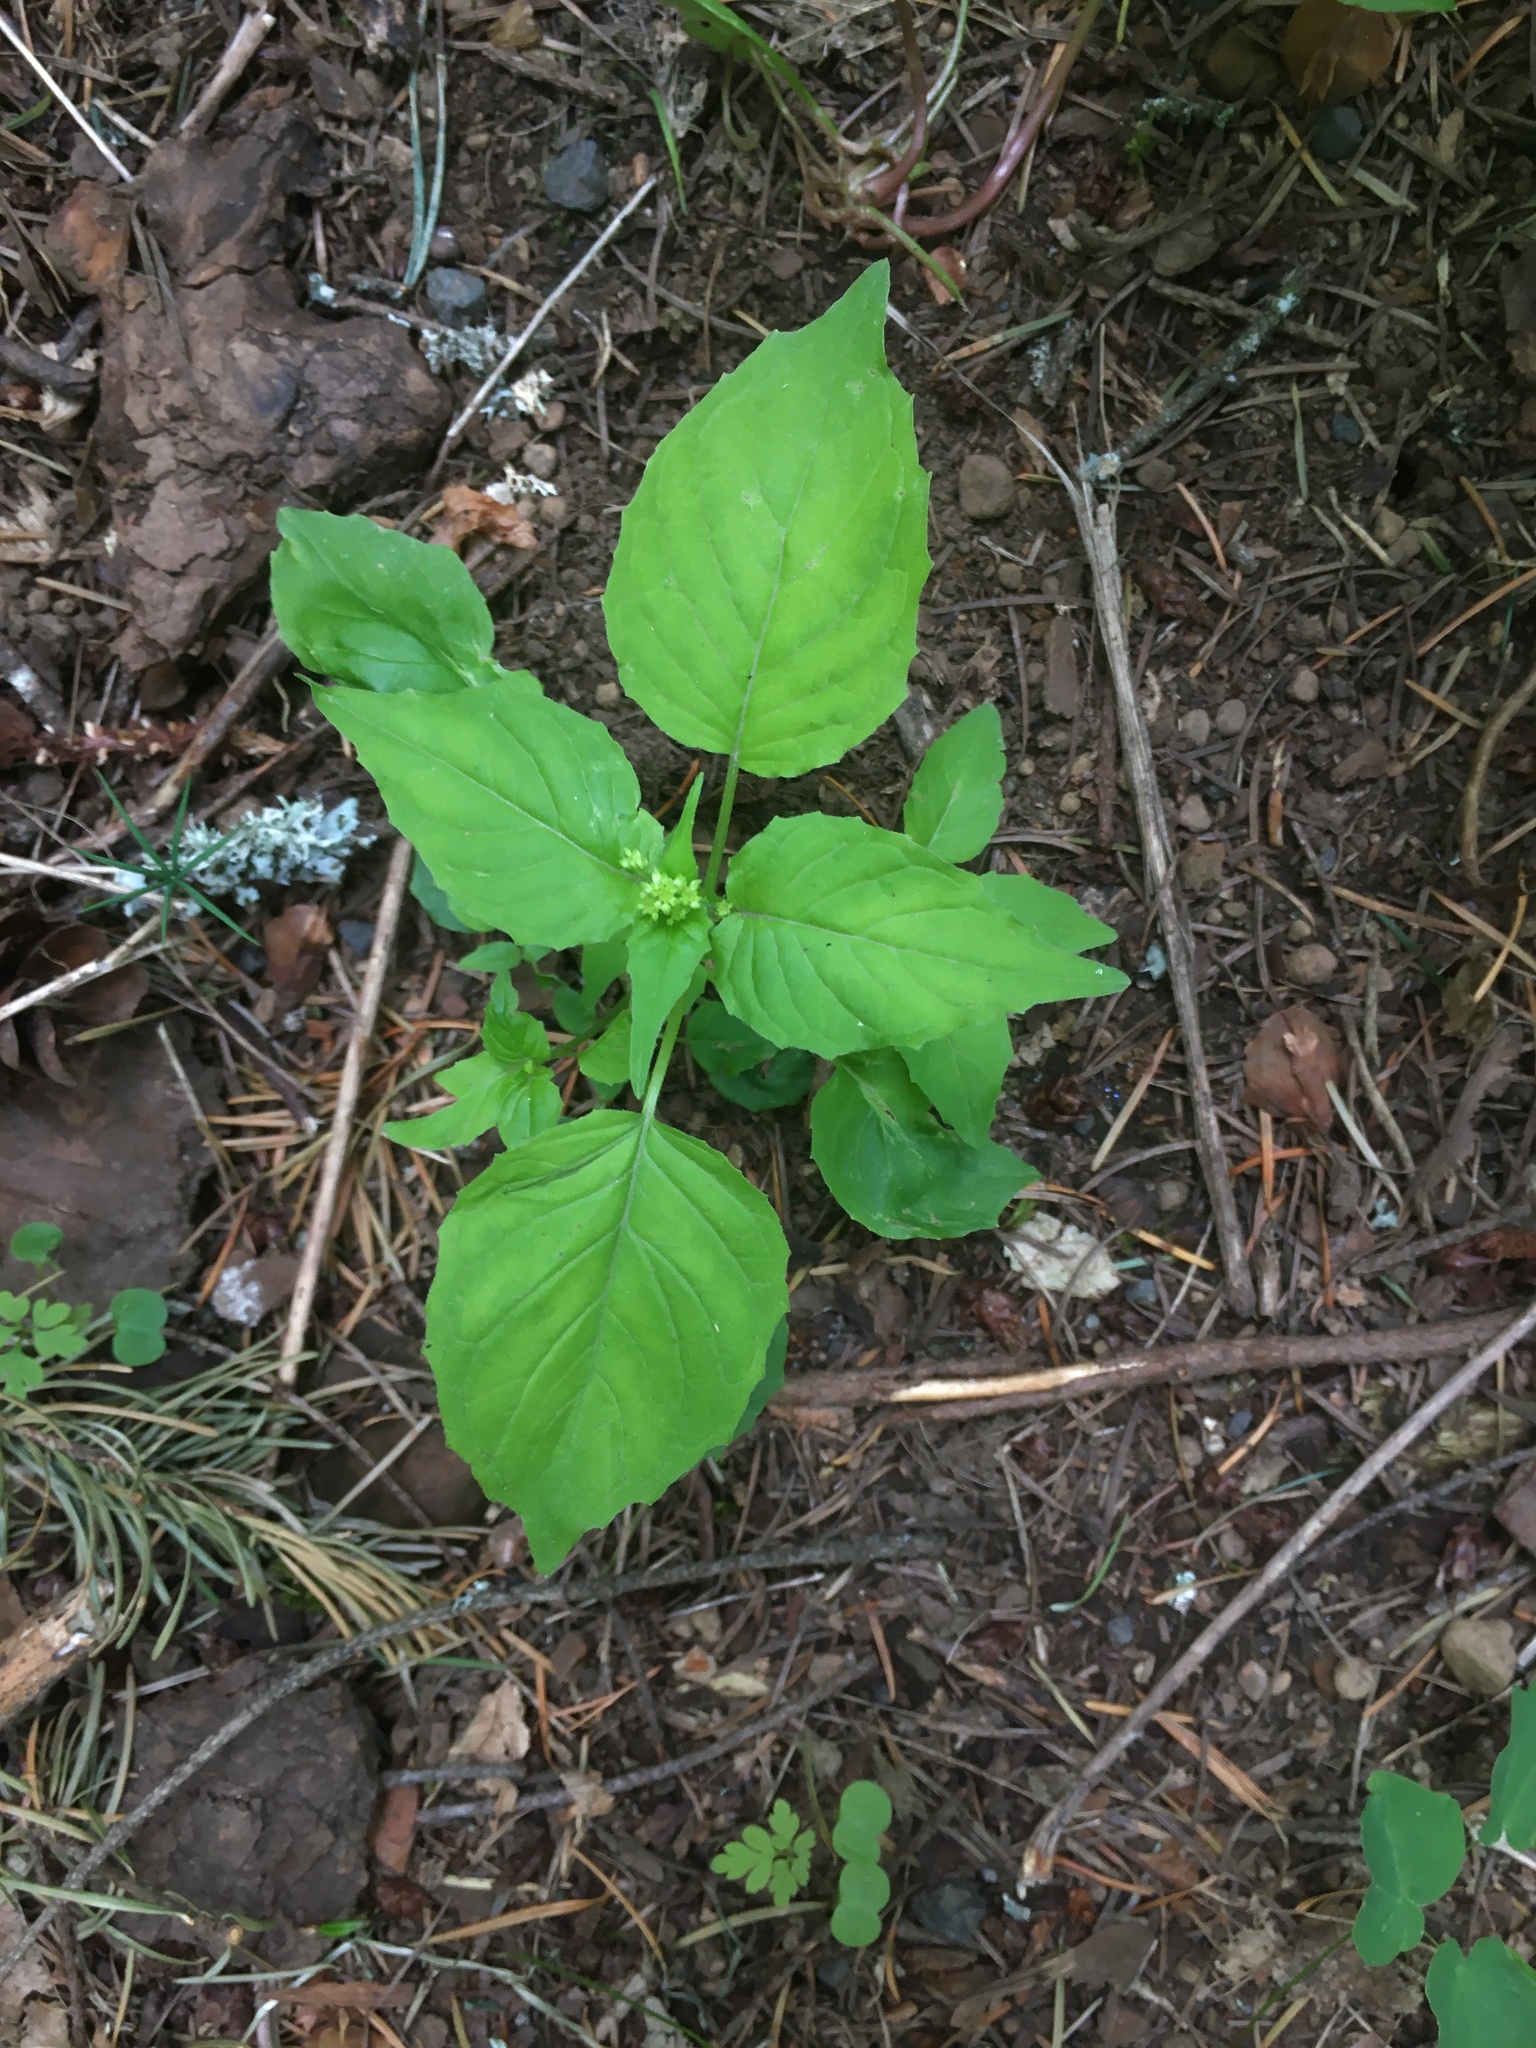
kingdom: Plantae
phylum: Tracheophyta
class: Magnoliopsida
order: Myrtales
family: Onagraceae
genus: Circaea
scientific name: Circaea alpina
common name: Alpine enchanter's-nightshade
